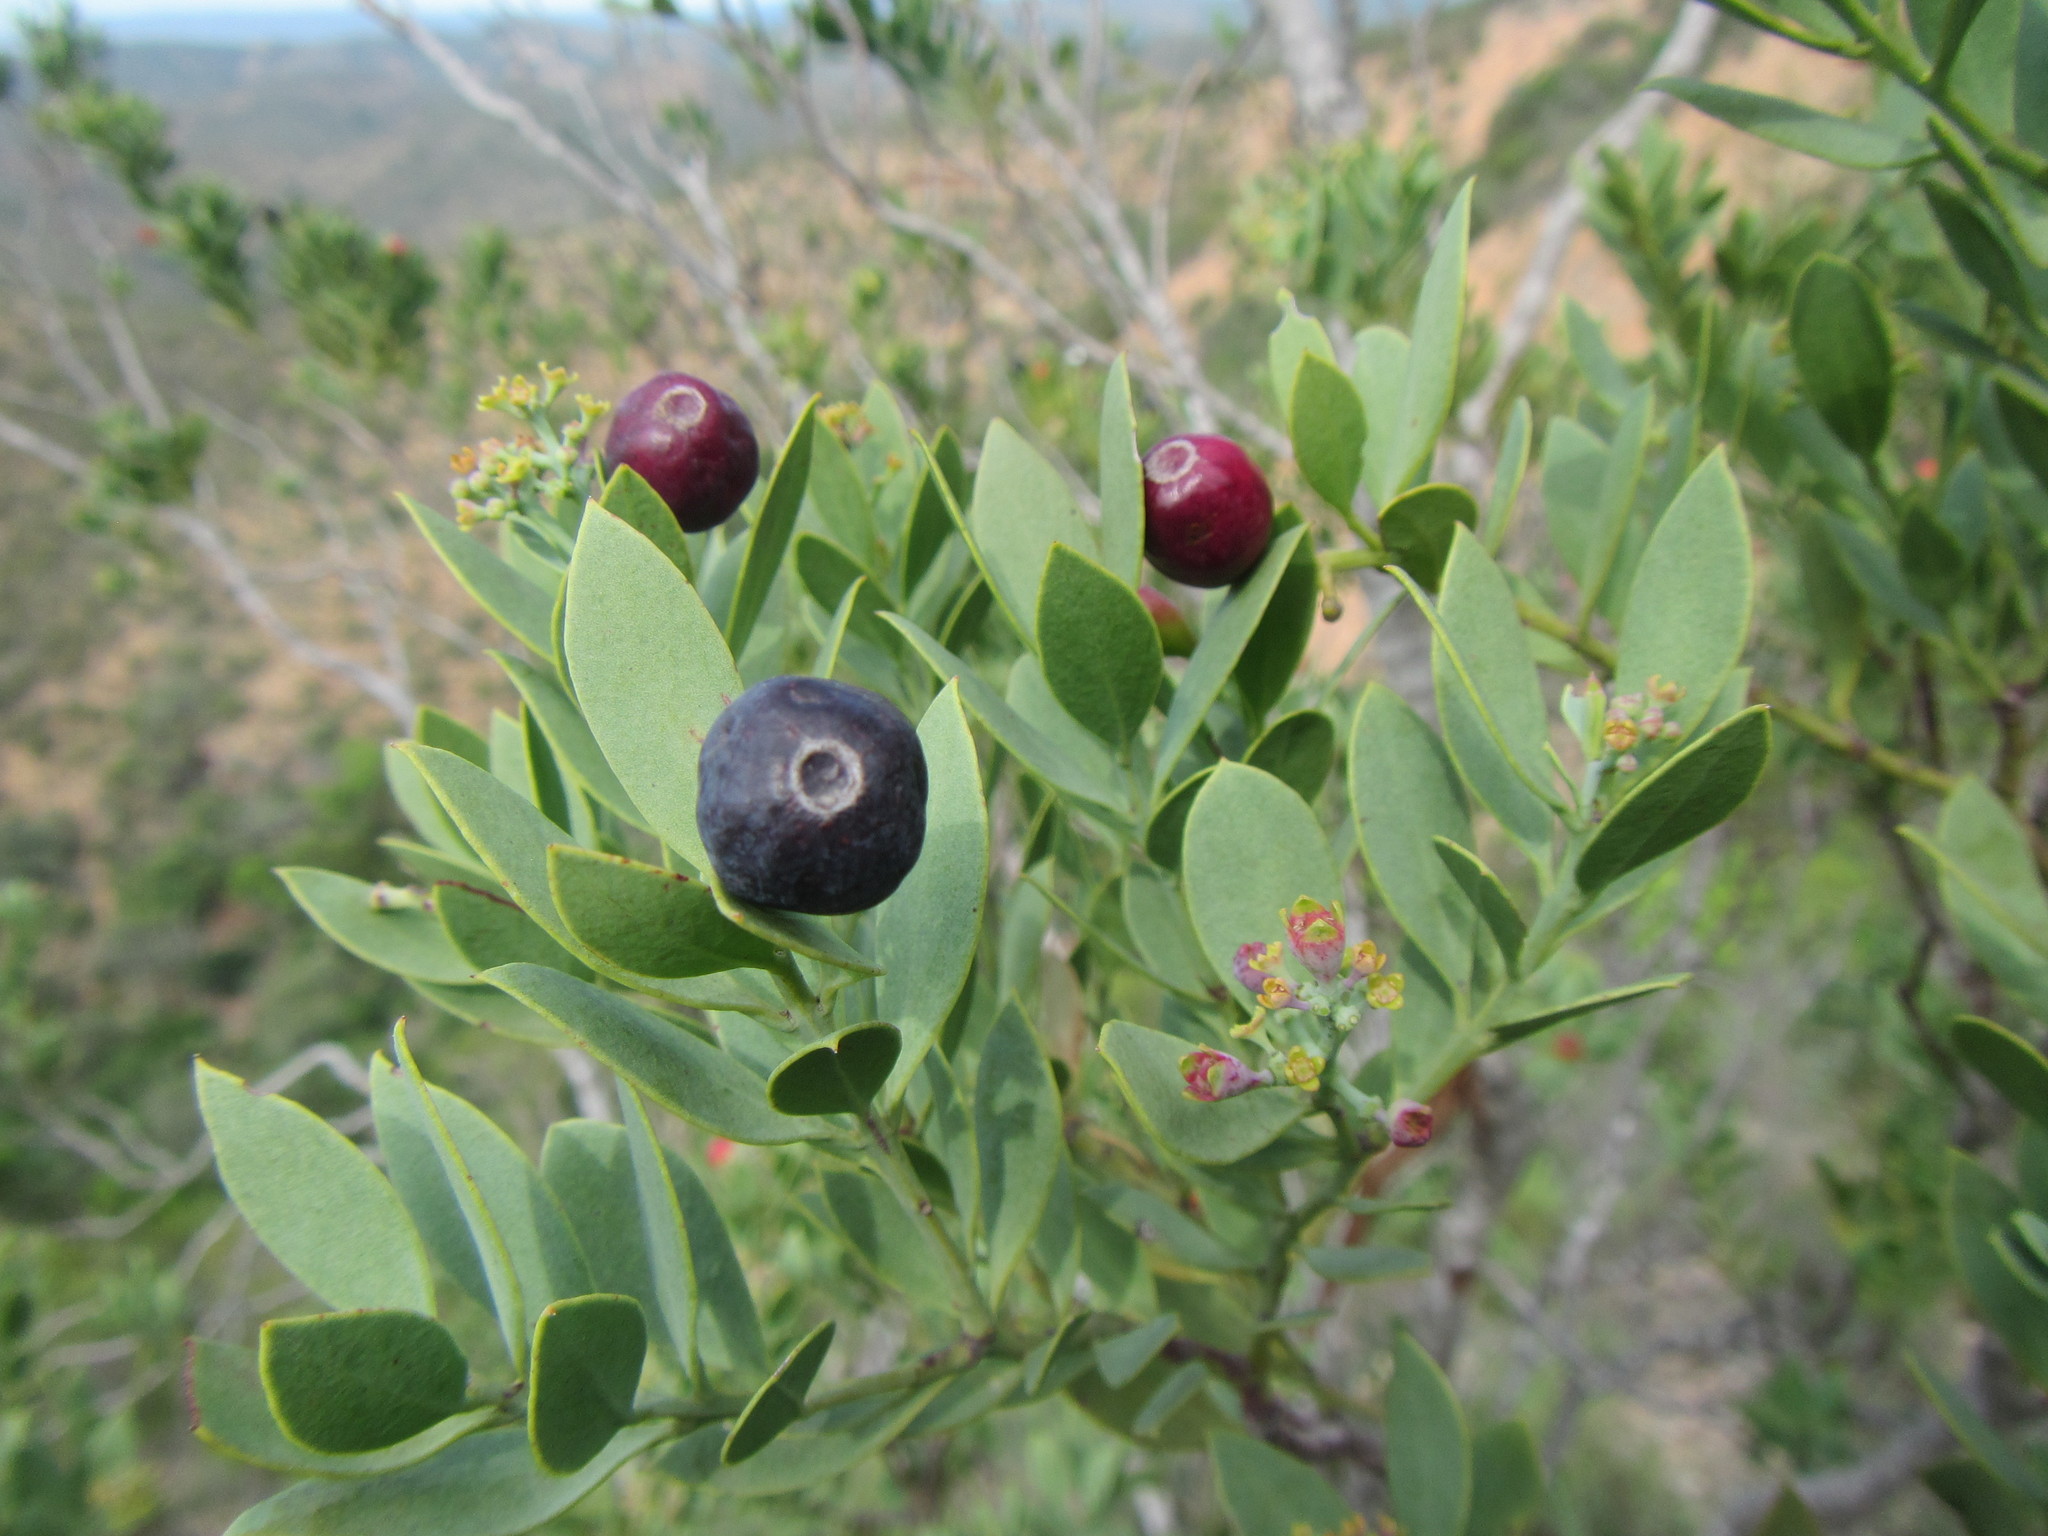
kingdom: Plantae
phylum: Tracheophyta
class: Magnoliopsida
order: Santalales
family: Santalaceae
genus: Osyris
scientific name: Osyris compressa
